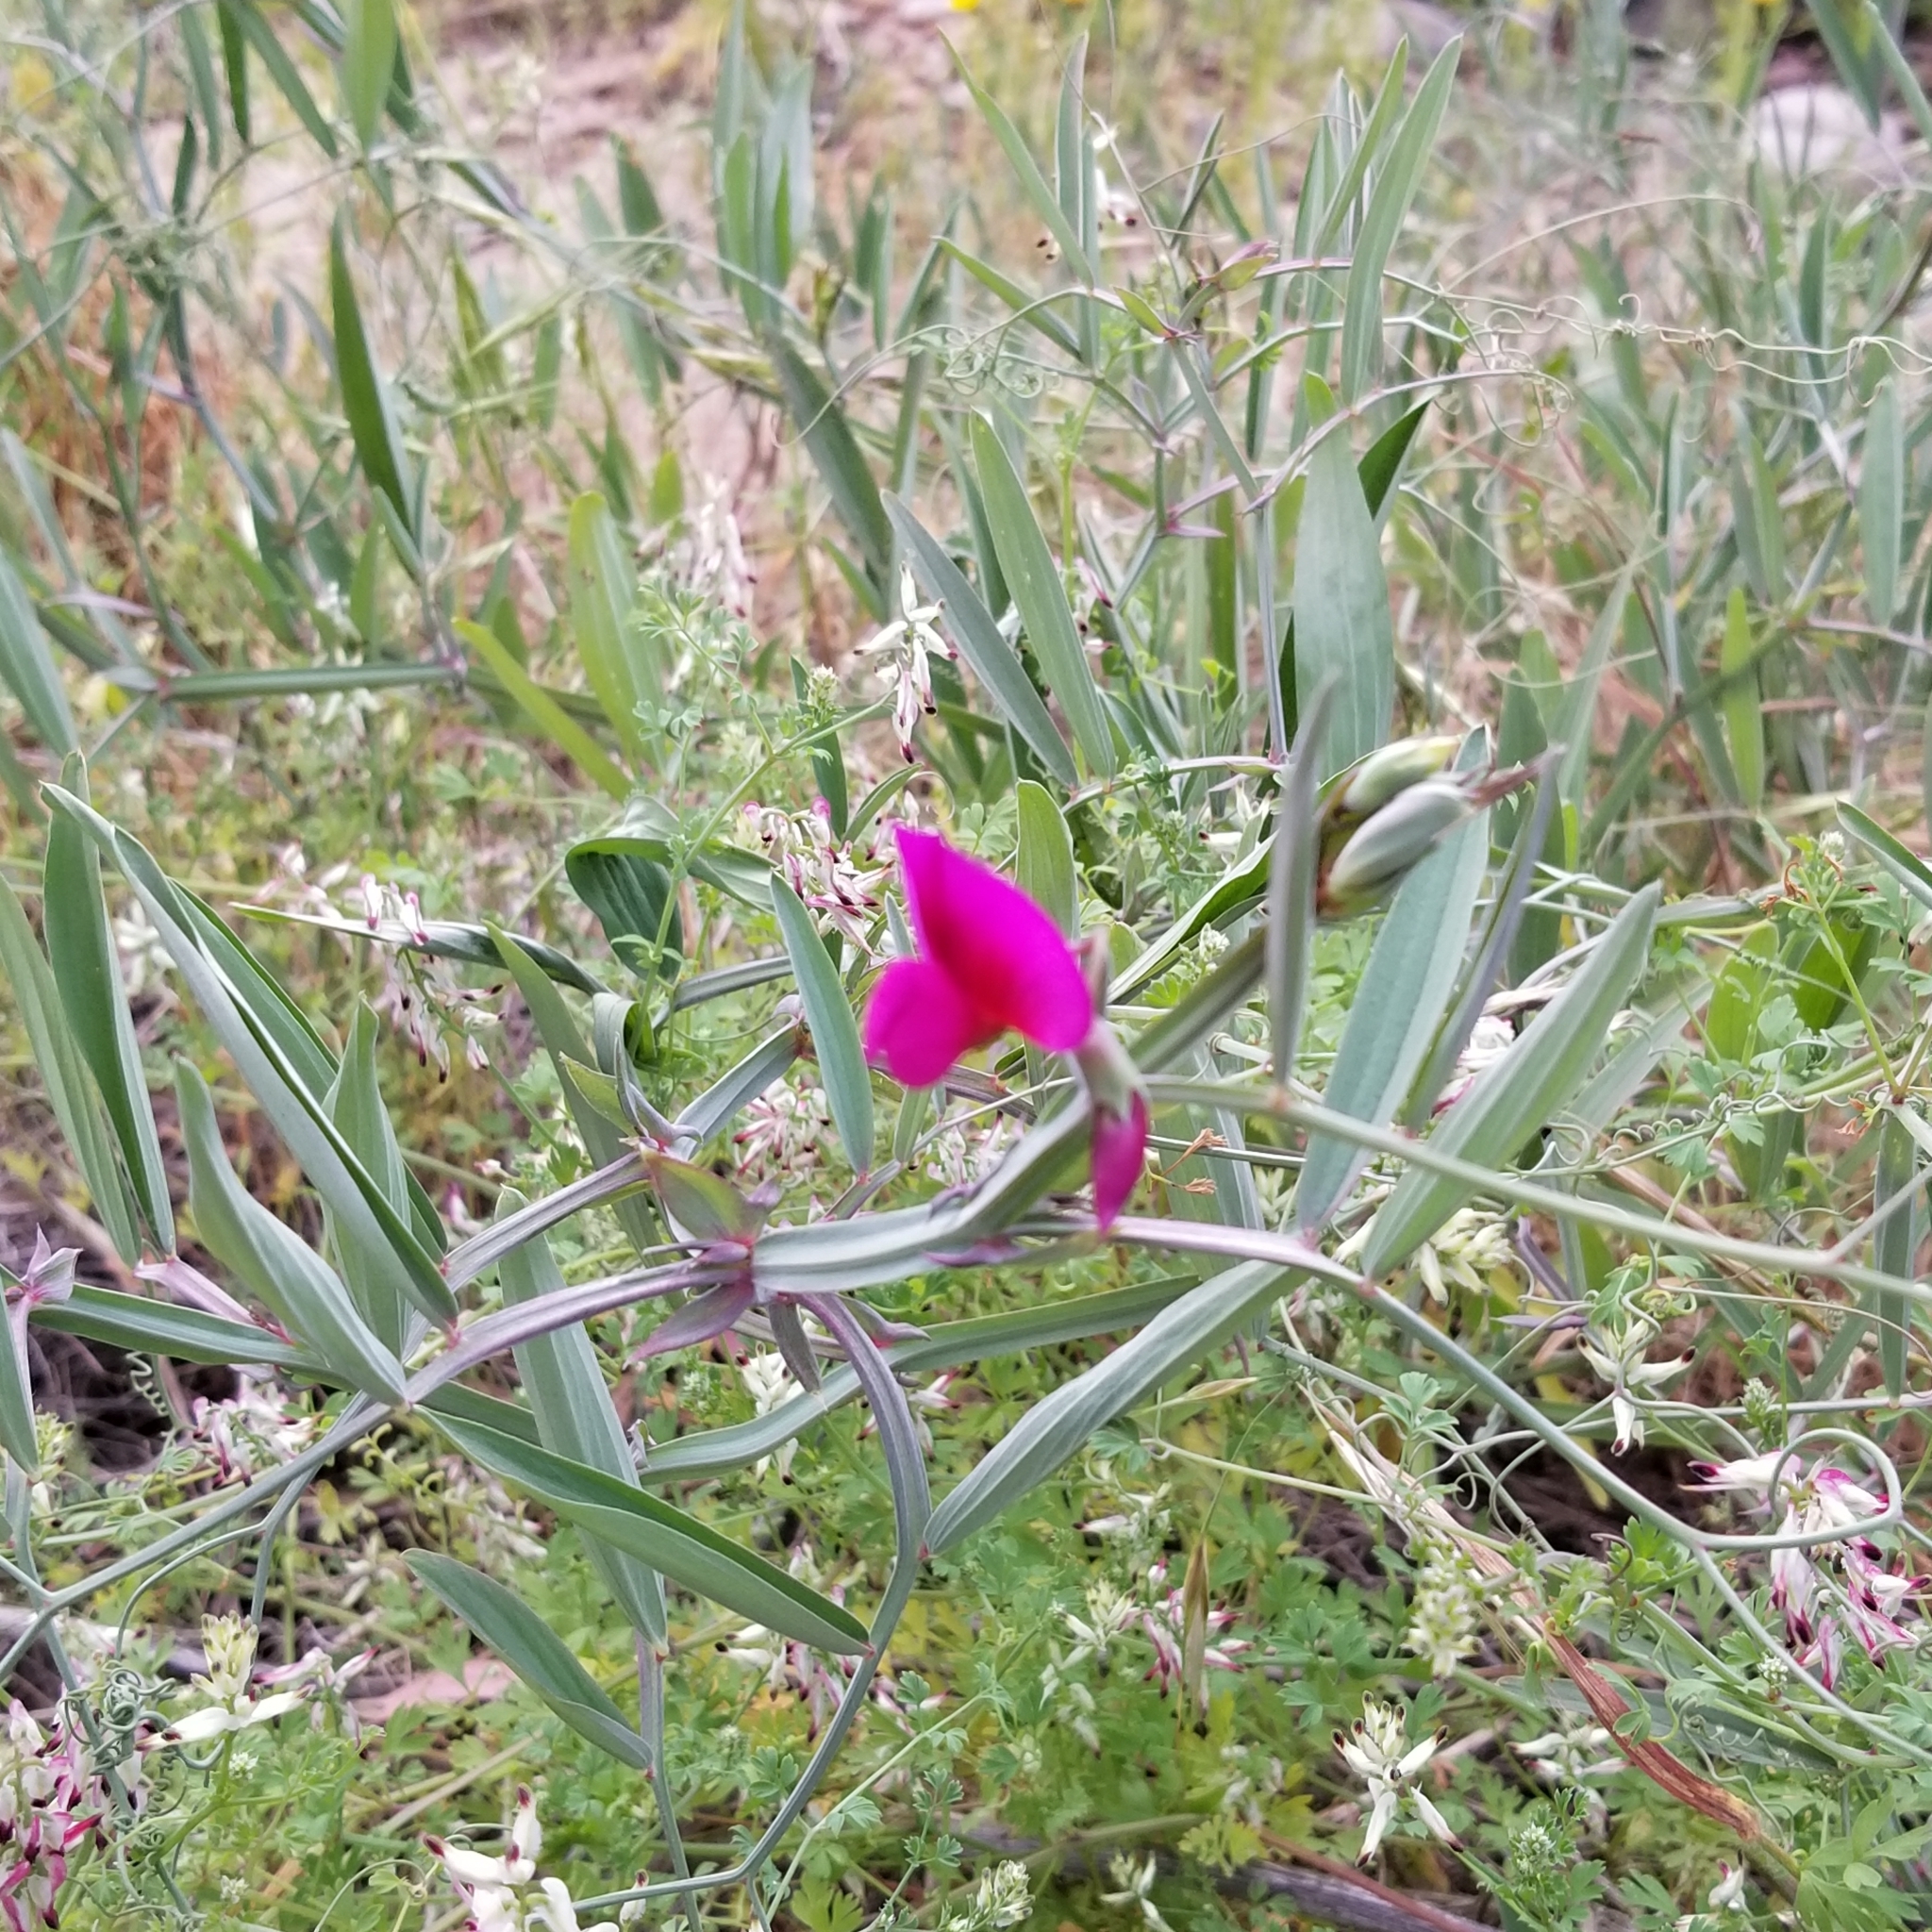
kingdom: Plantae
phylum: Tracheophyta
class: Magnoliopsida
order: Fabales
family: Fabaceae
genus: Lathyrus
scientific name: Lathyrus tingitanus
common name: Tangier pea
